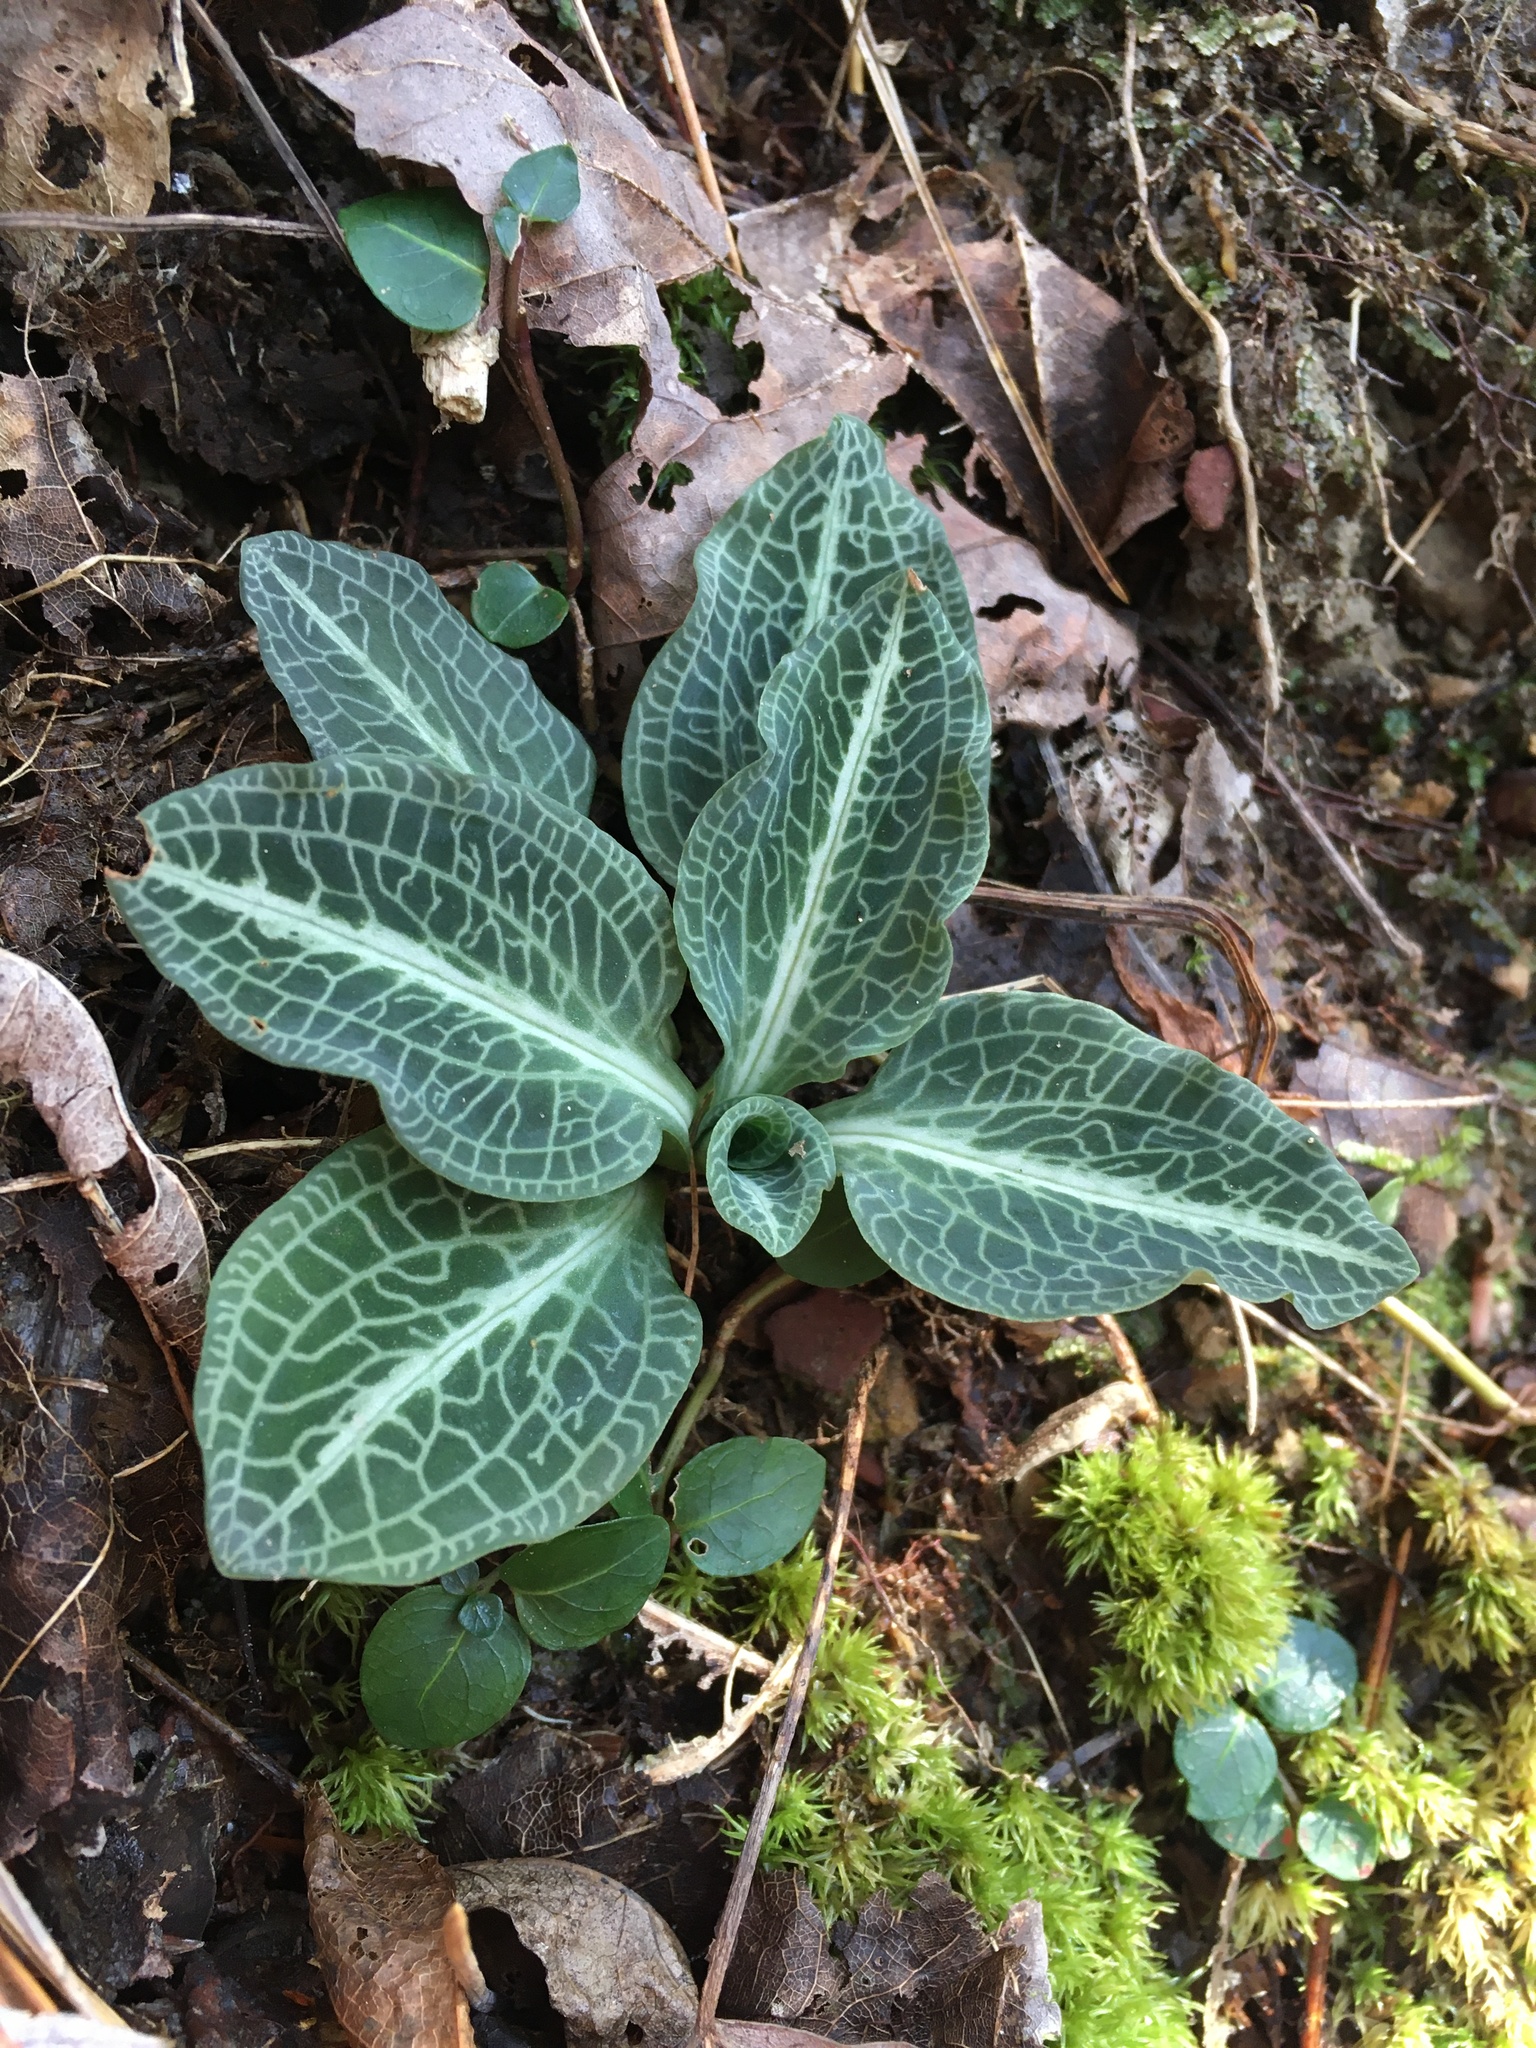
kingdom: Plantae
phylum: Tracheophyta
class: Liliopsida
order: Asparagales
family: Orchidaceae
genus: Goodyera
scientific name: Goodyera pubescens
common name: Downy rattlesnake-plantain
